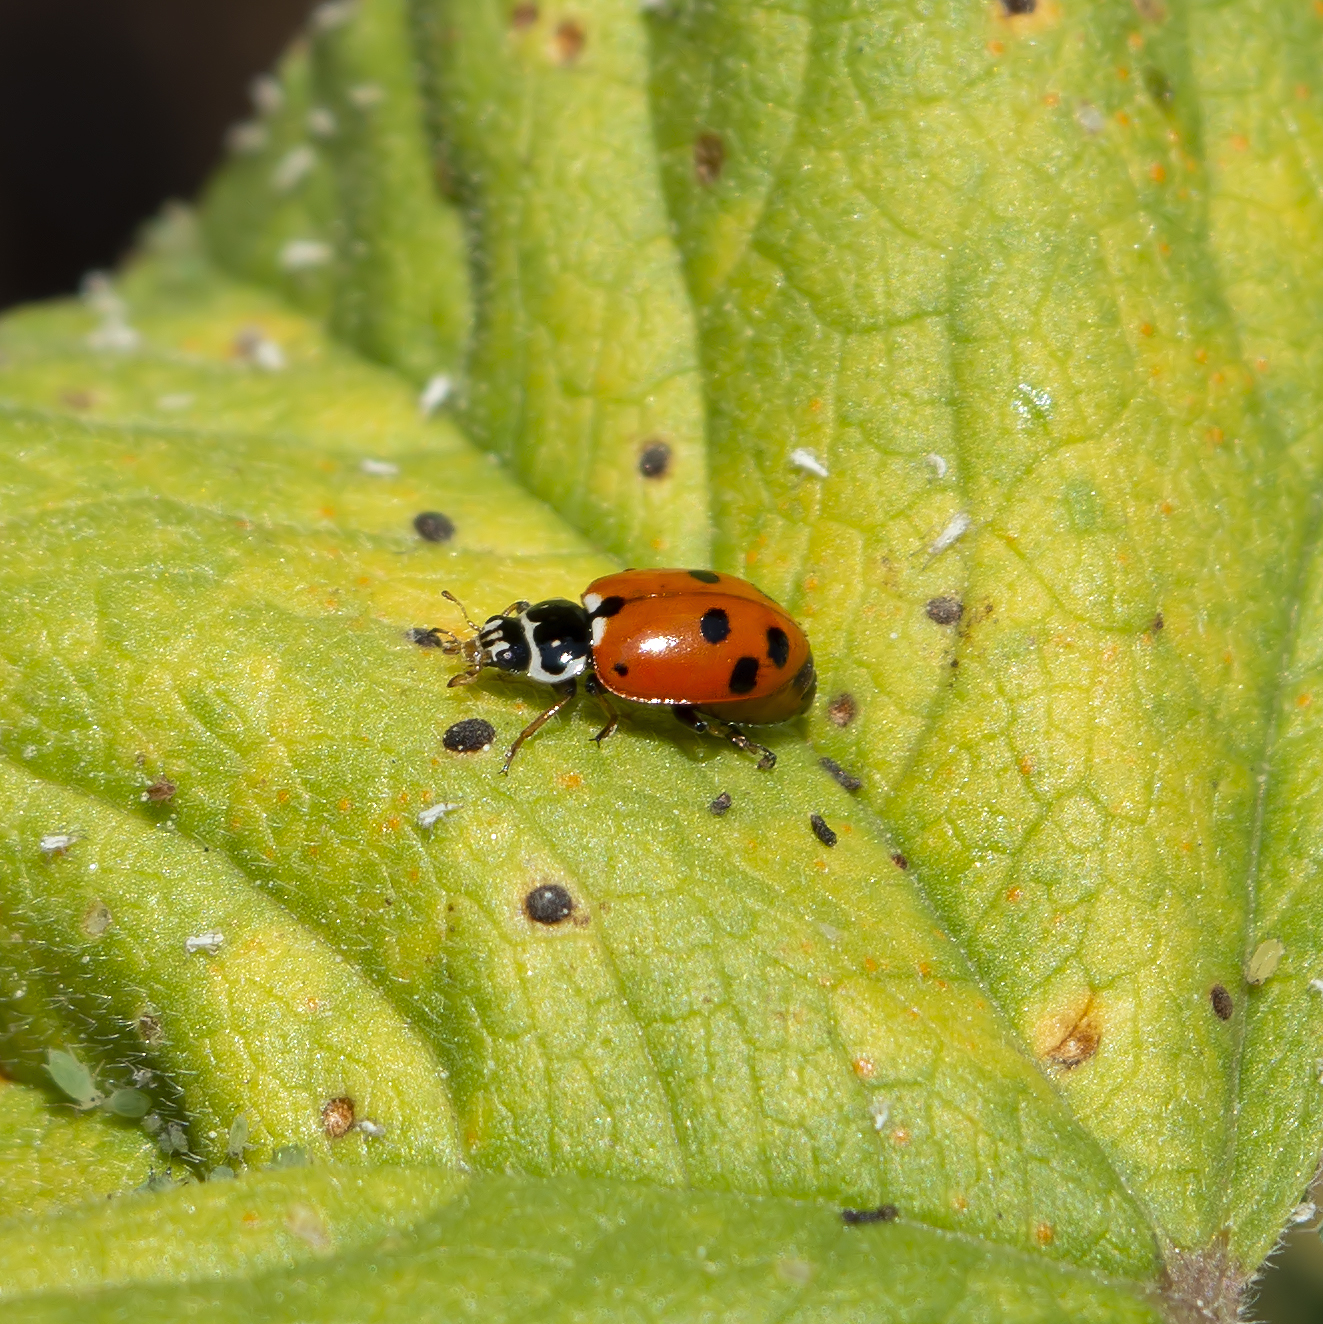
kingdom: Animalia
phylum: Arthropoda
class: Insecta
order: Coleoptera
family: Coccinellidae
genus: Hippodamia
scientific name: Hippodamia variegata
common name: Ladybird beetle
